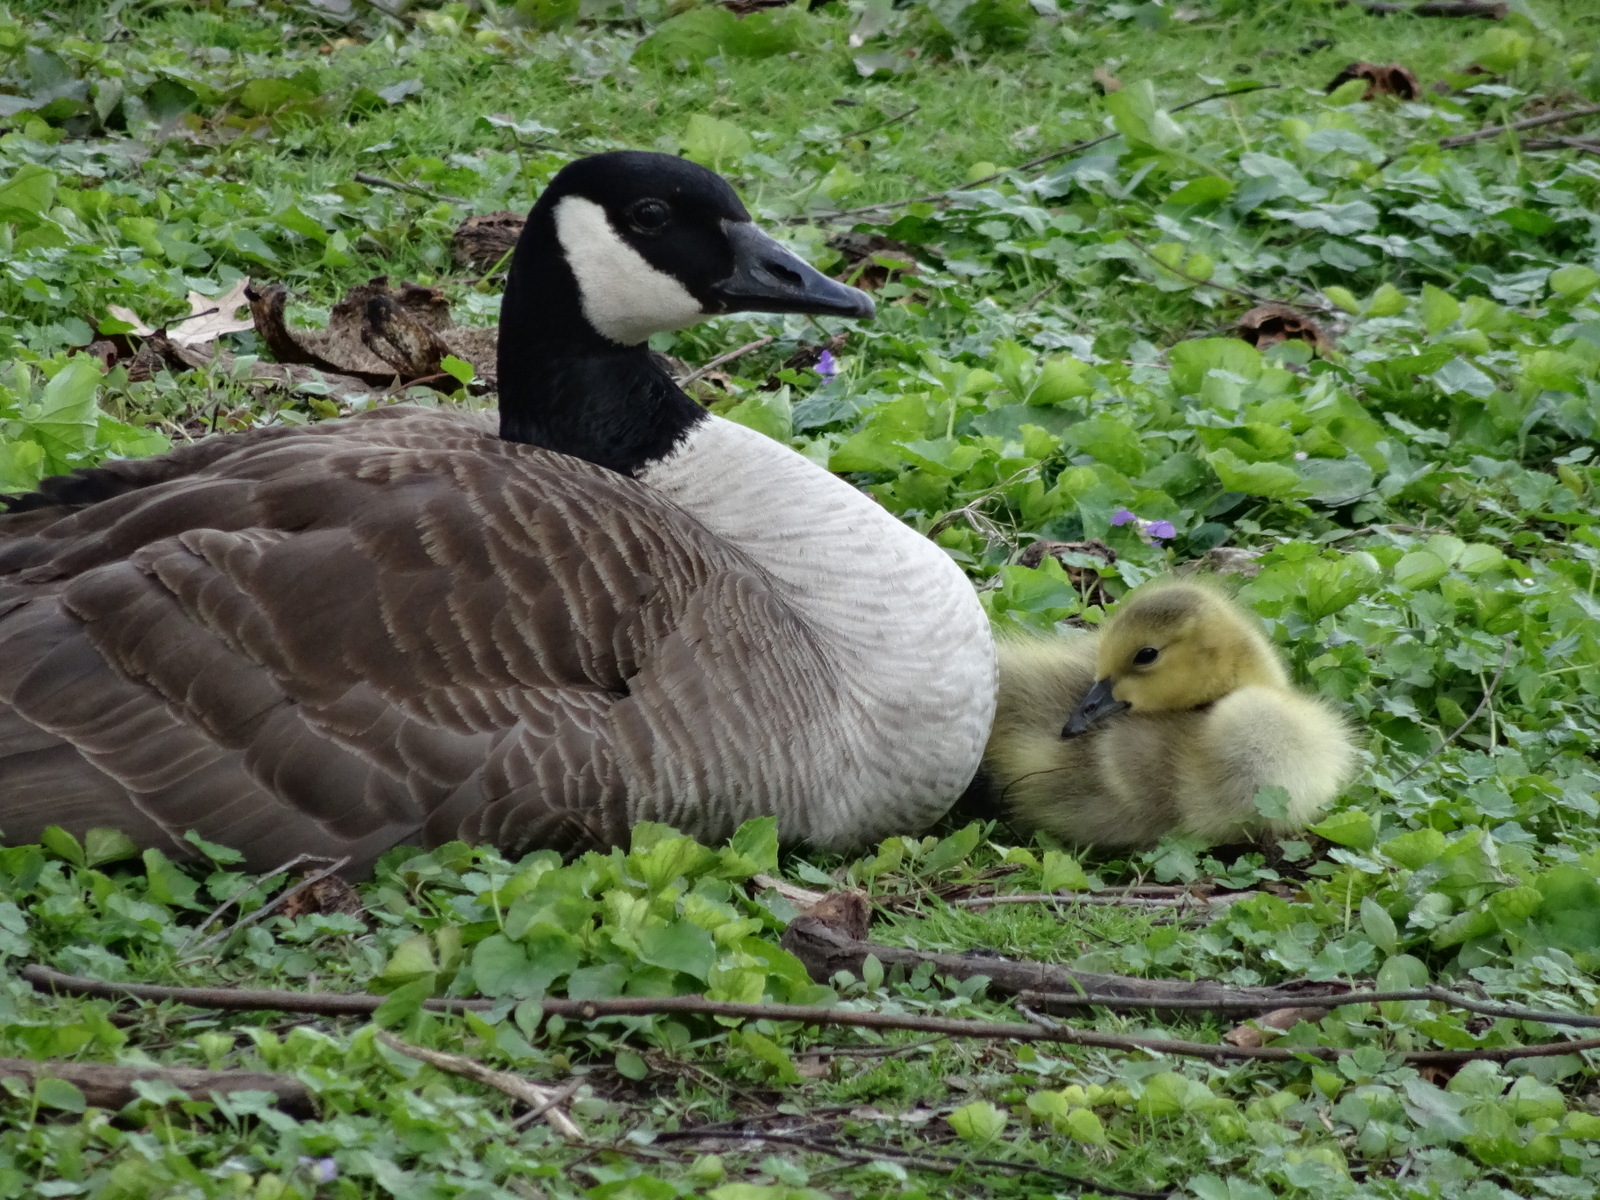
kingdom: Animalia
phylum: Chordata
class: Aves
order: Anseriformes
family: Anatidae
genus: Branta
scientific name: Branta canadensis
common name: Canada goose
